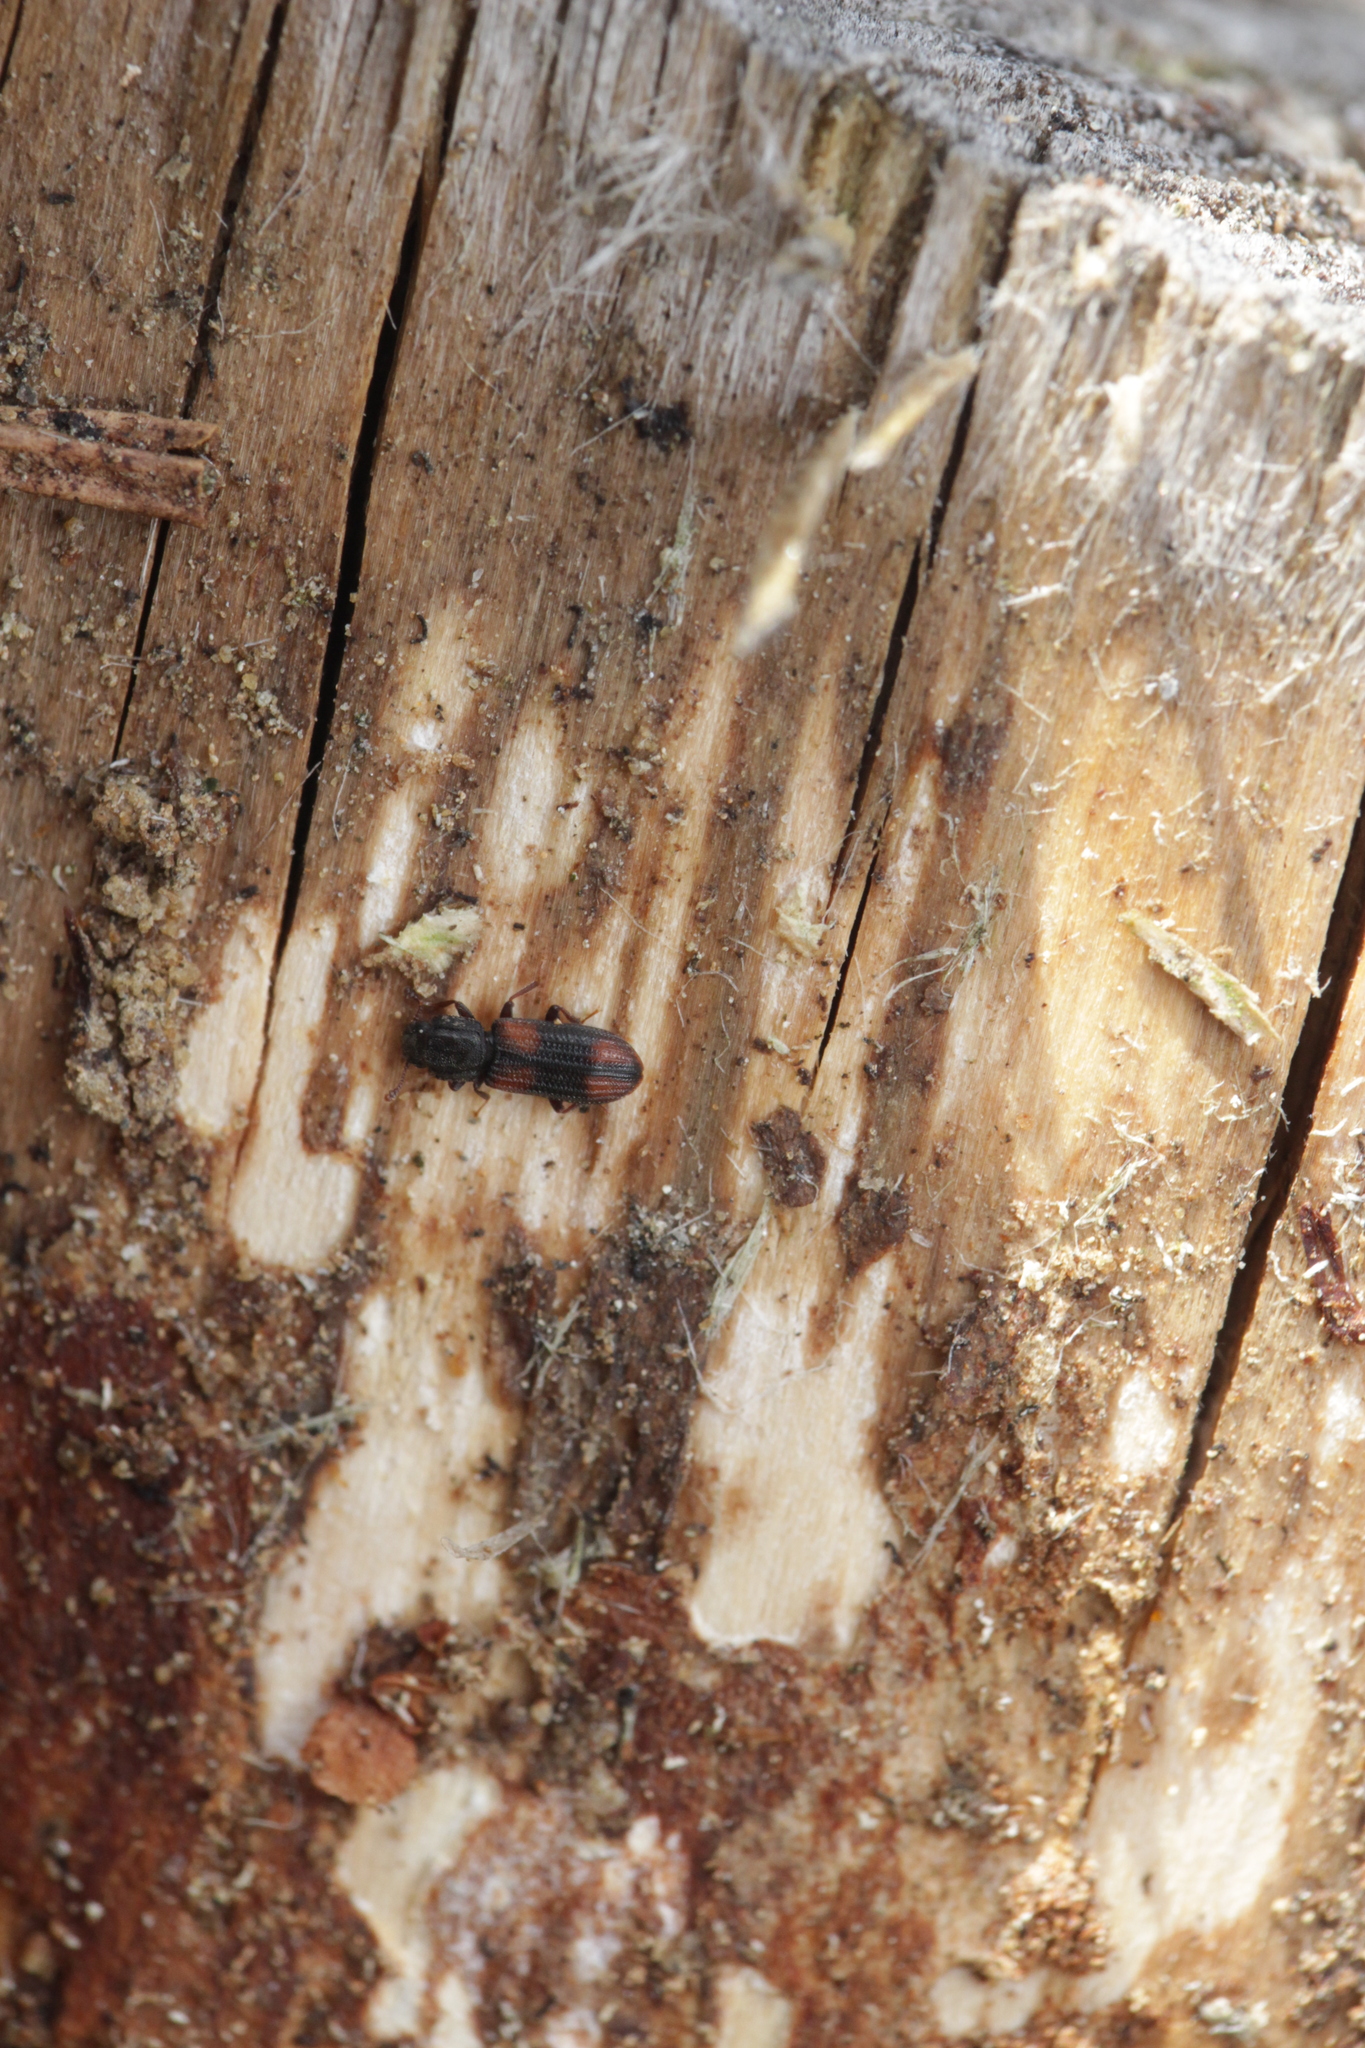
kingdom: Animalia
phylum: Arthropoda
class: Insecta
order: Coleoptera
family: Zopheridae
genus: Bitoma
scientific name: Bitoma crenata
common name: Bark beetle
